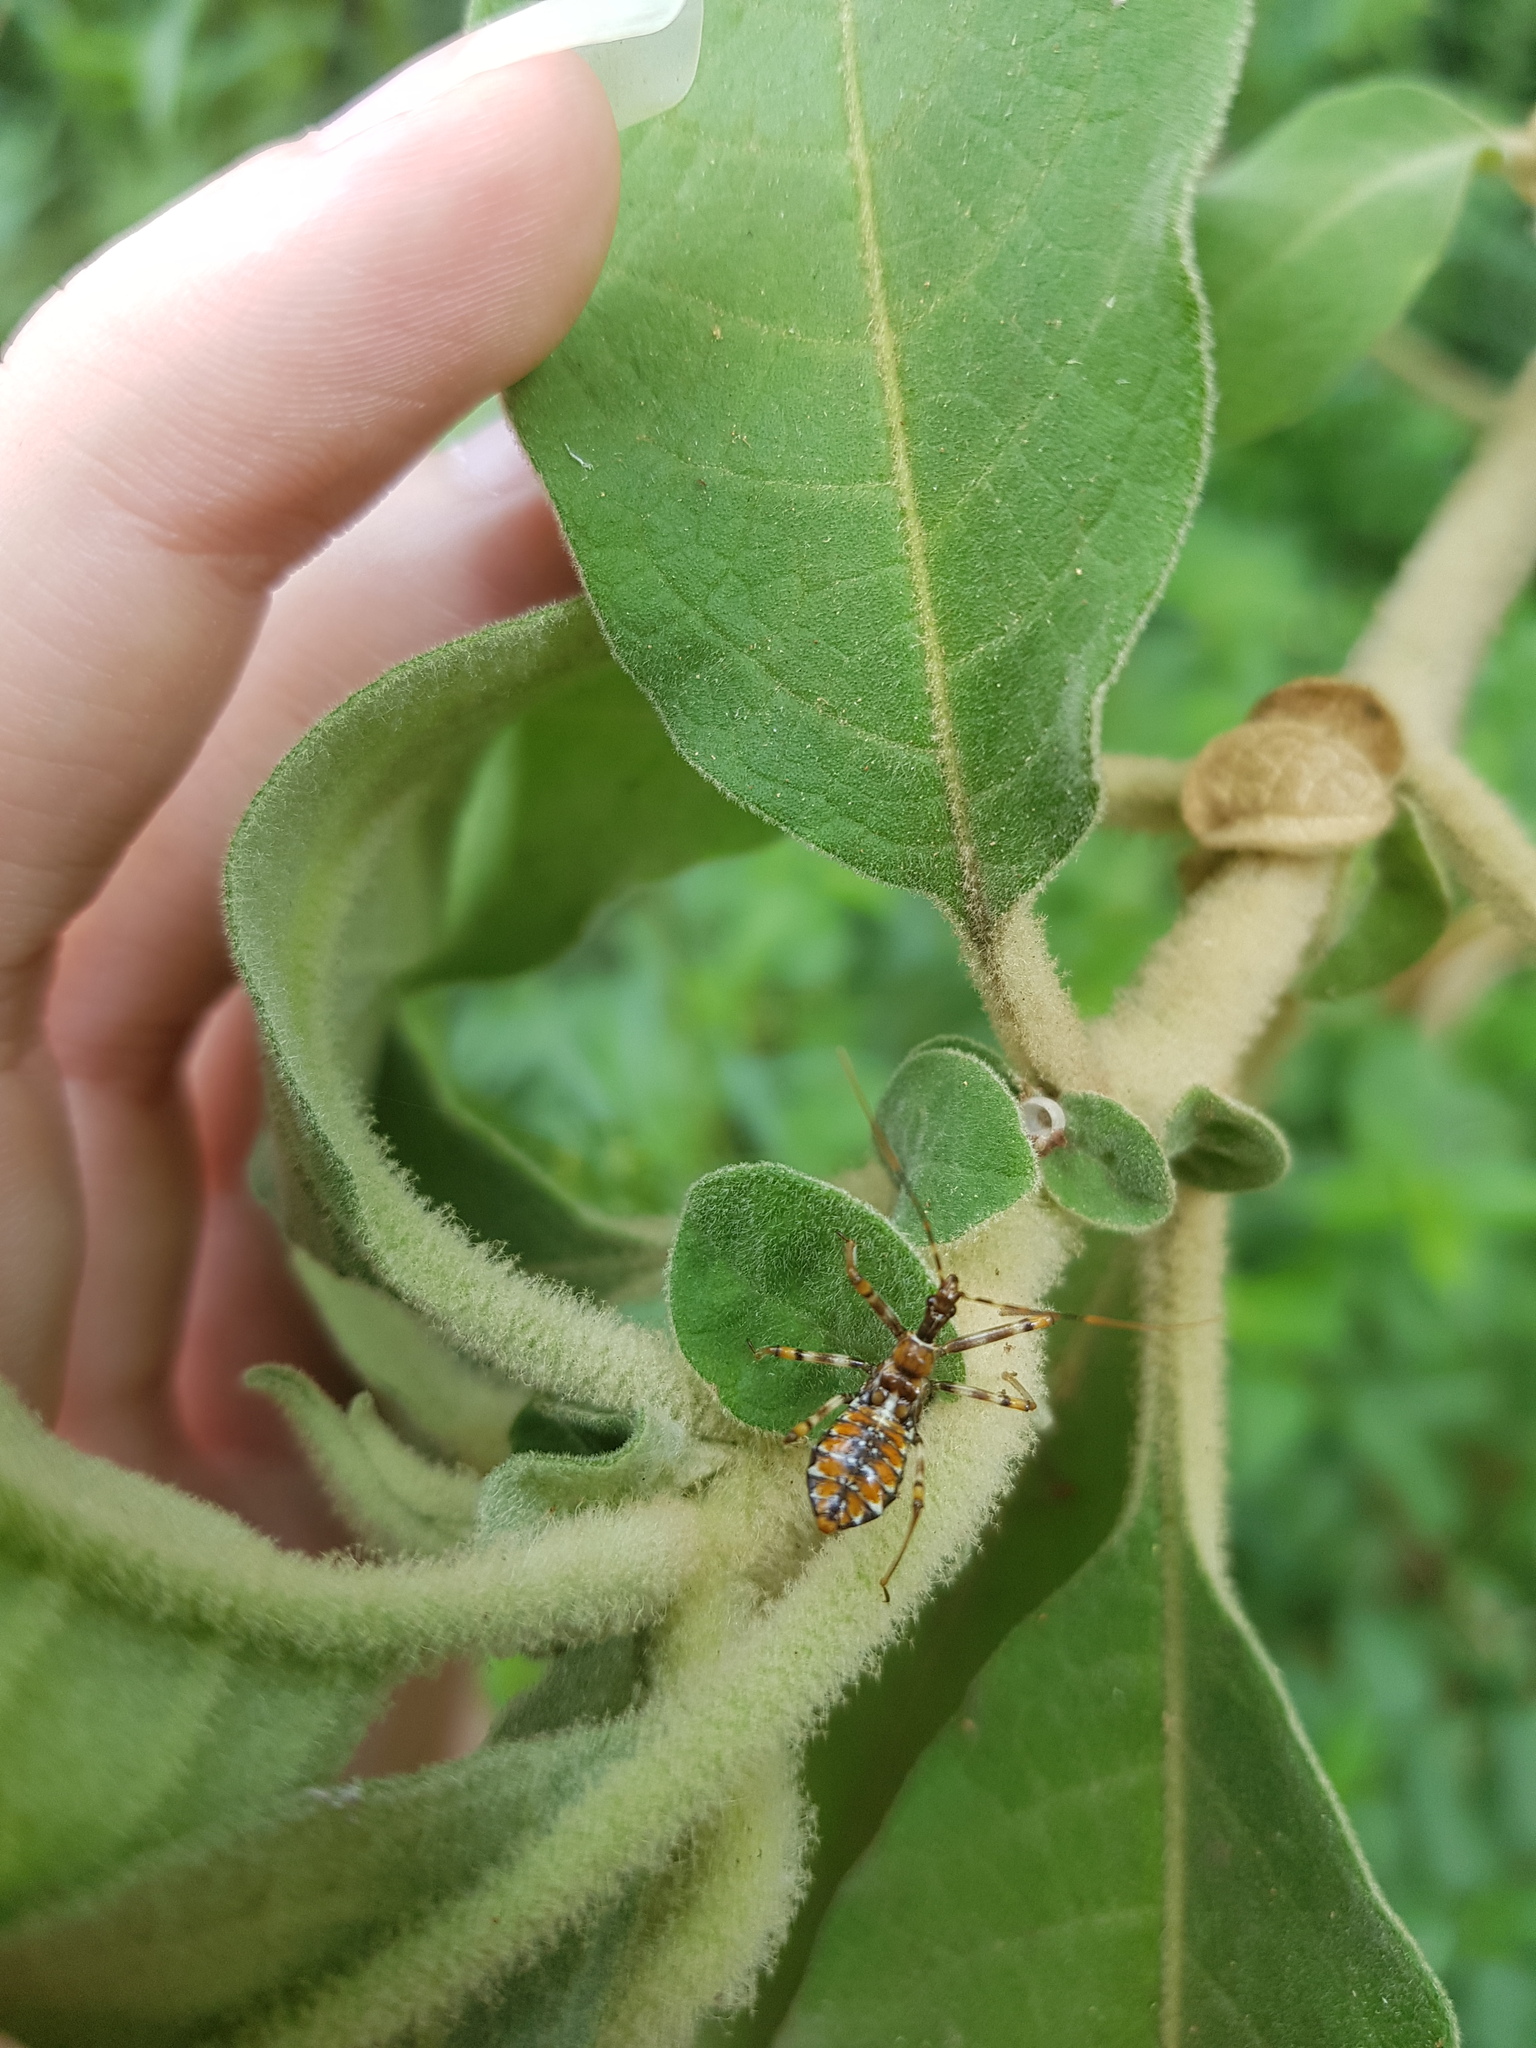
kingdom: Animalia
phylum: Arthropoda
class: Insecta
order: Hemiptera
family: Reduviidae
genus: Pristhesancus
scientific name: Pristhesancus plagipennis
